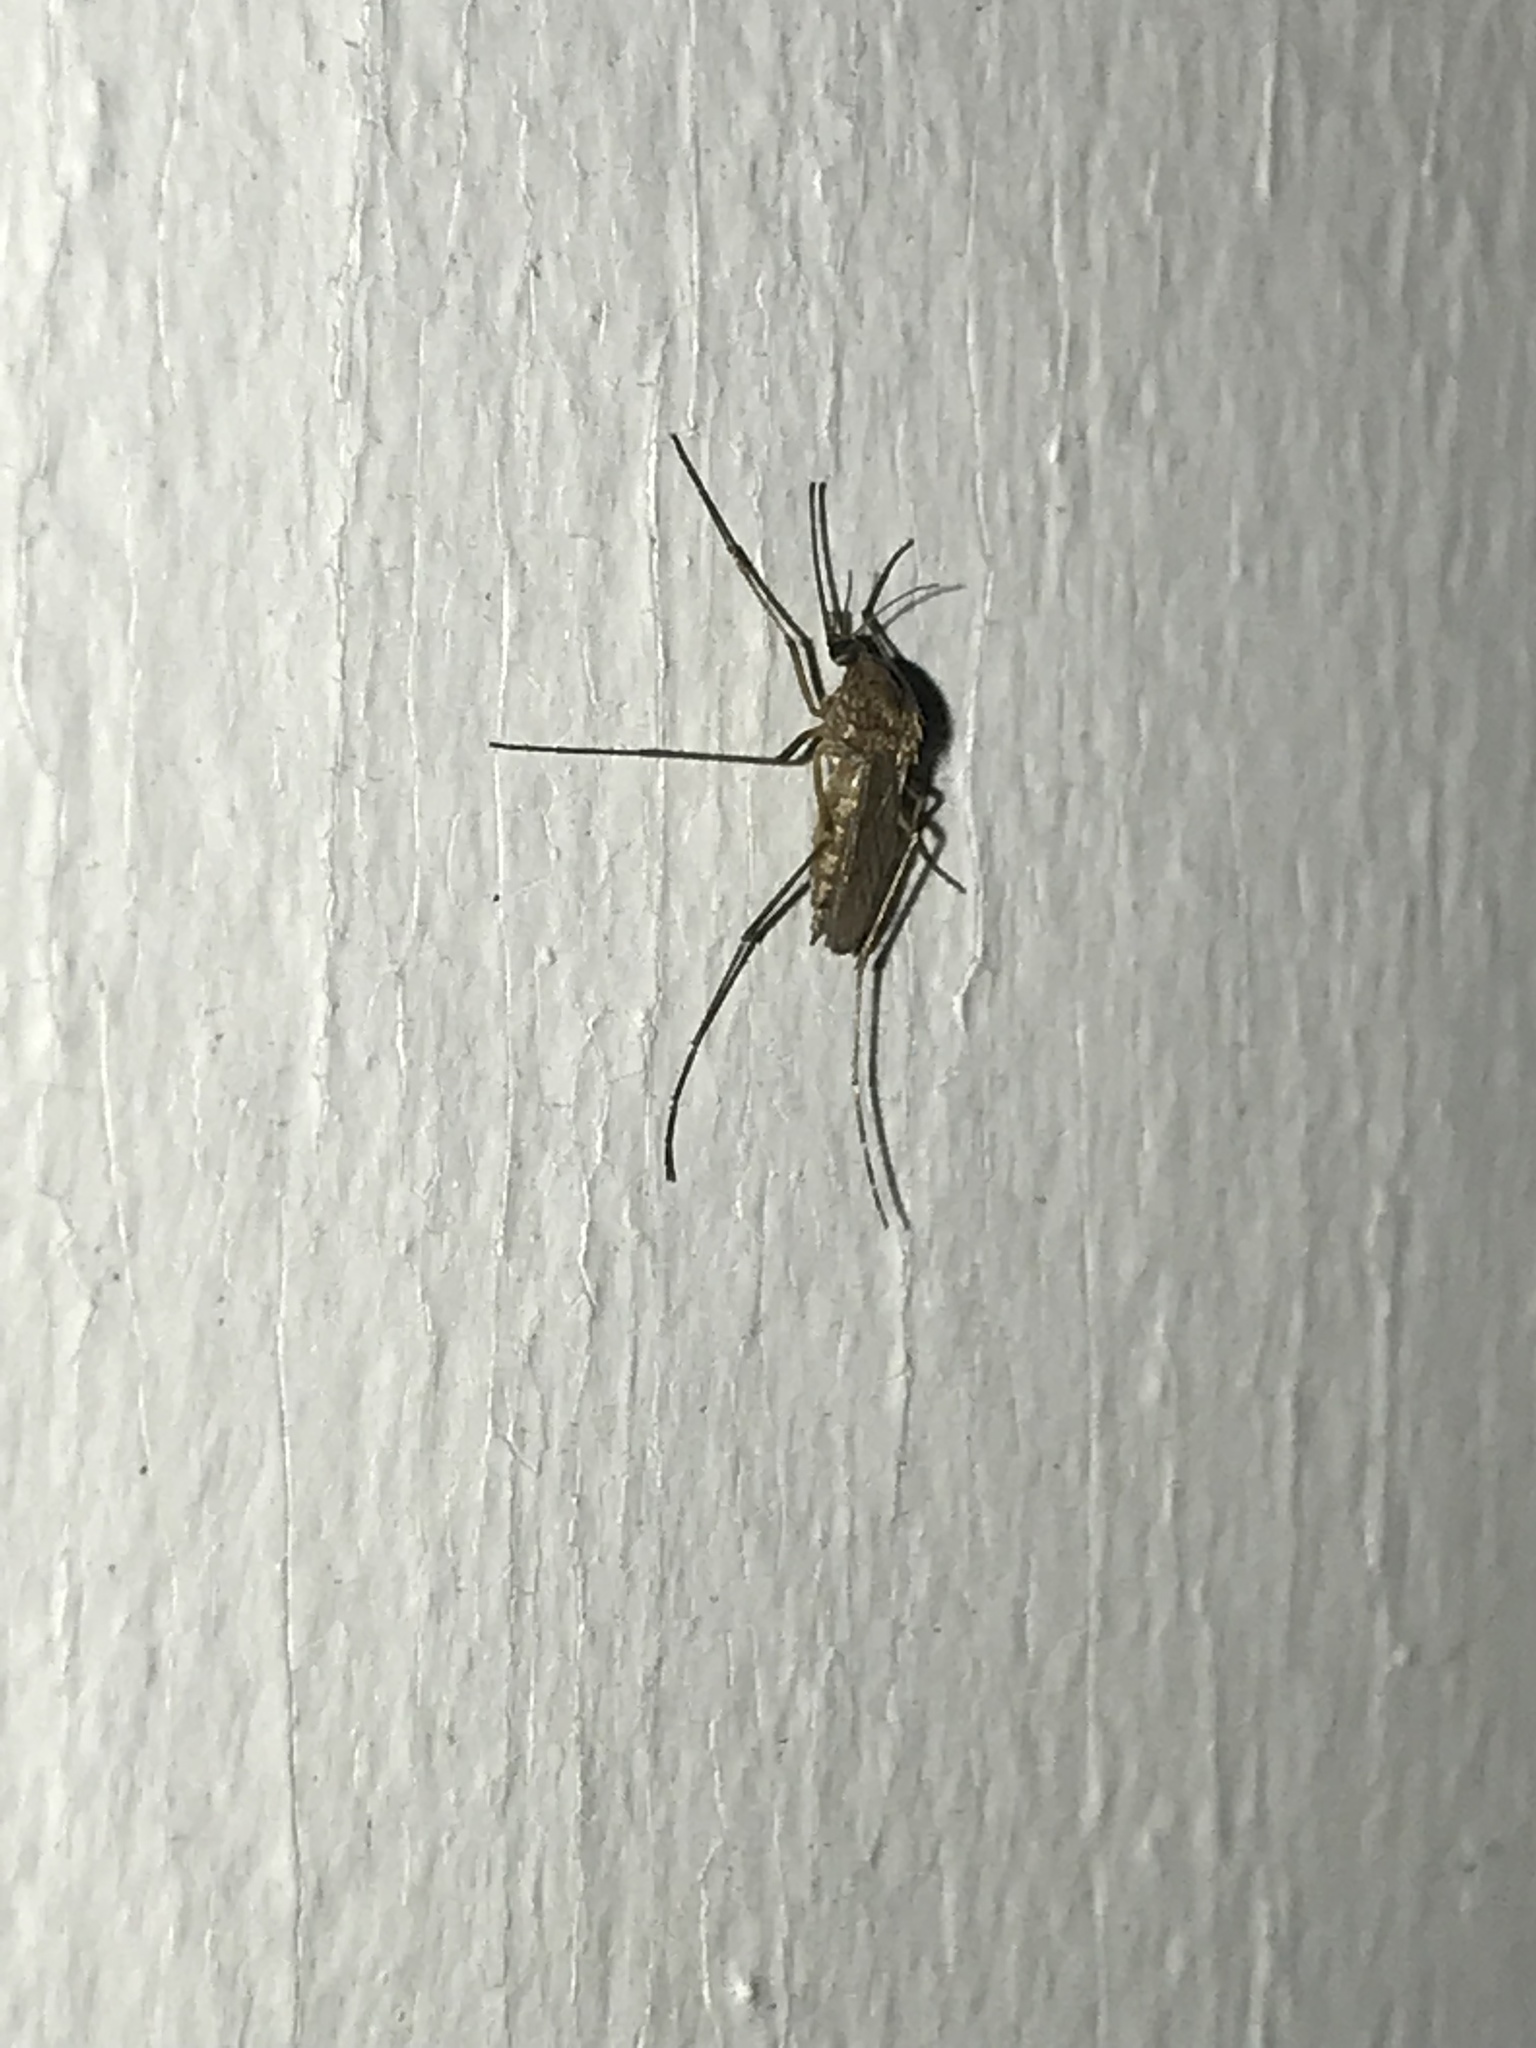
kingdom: Animalia
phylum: Arthropoda
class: Insecta
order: Diptera
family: Culicidae
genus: Aedes
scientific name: Aedes vexans
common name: Inland floodwater mosquito
